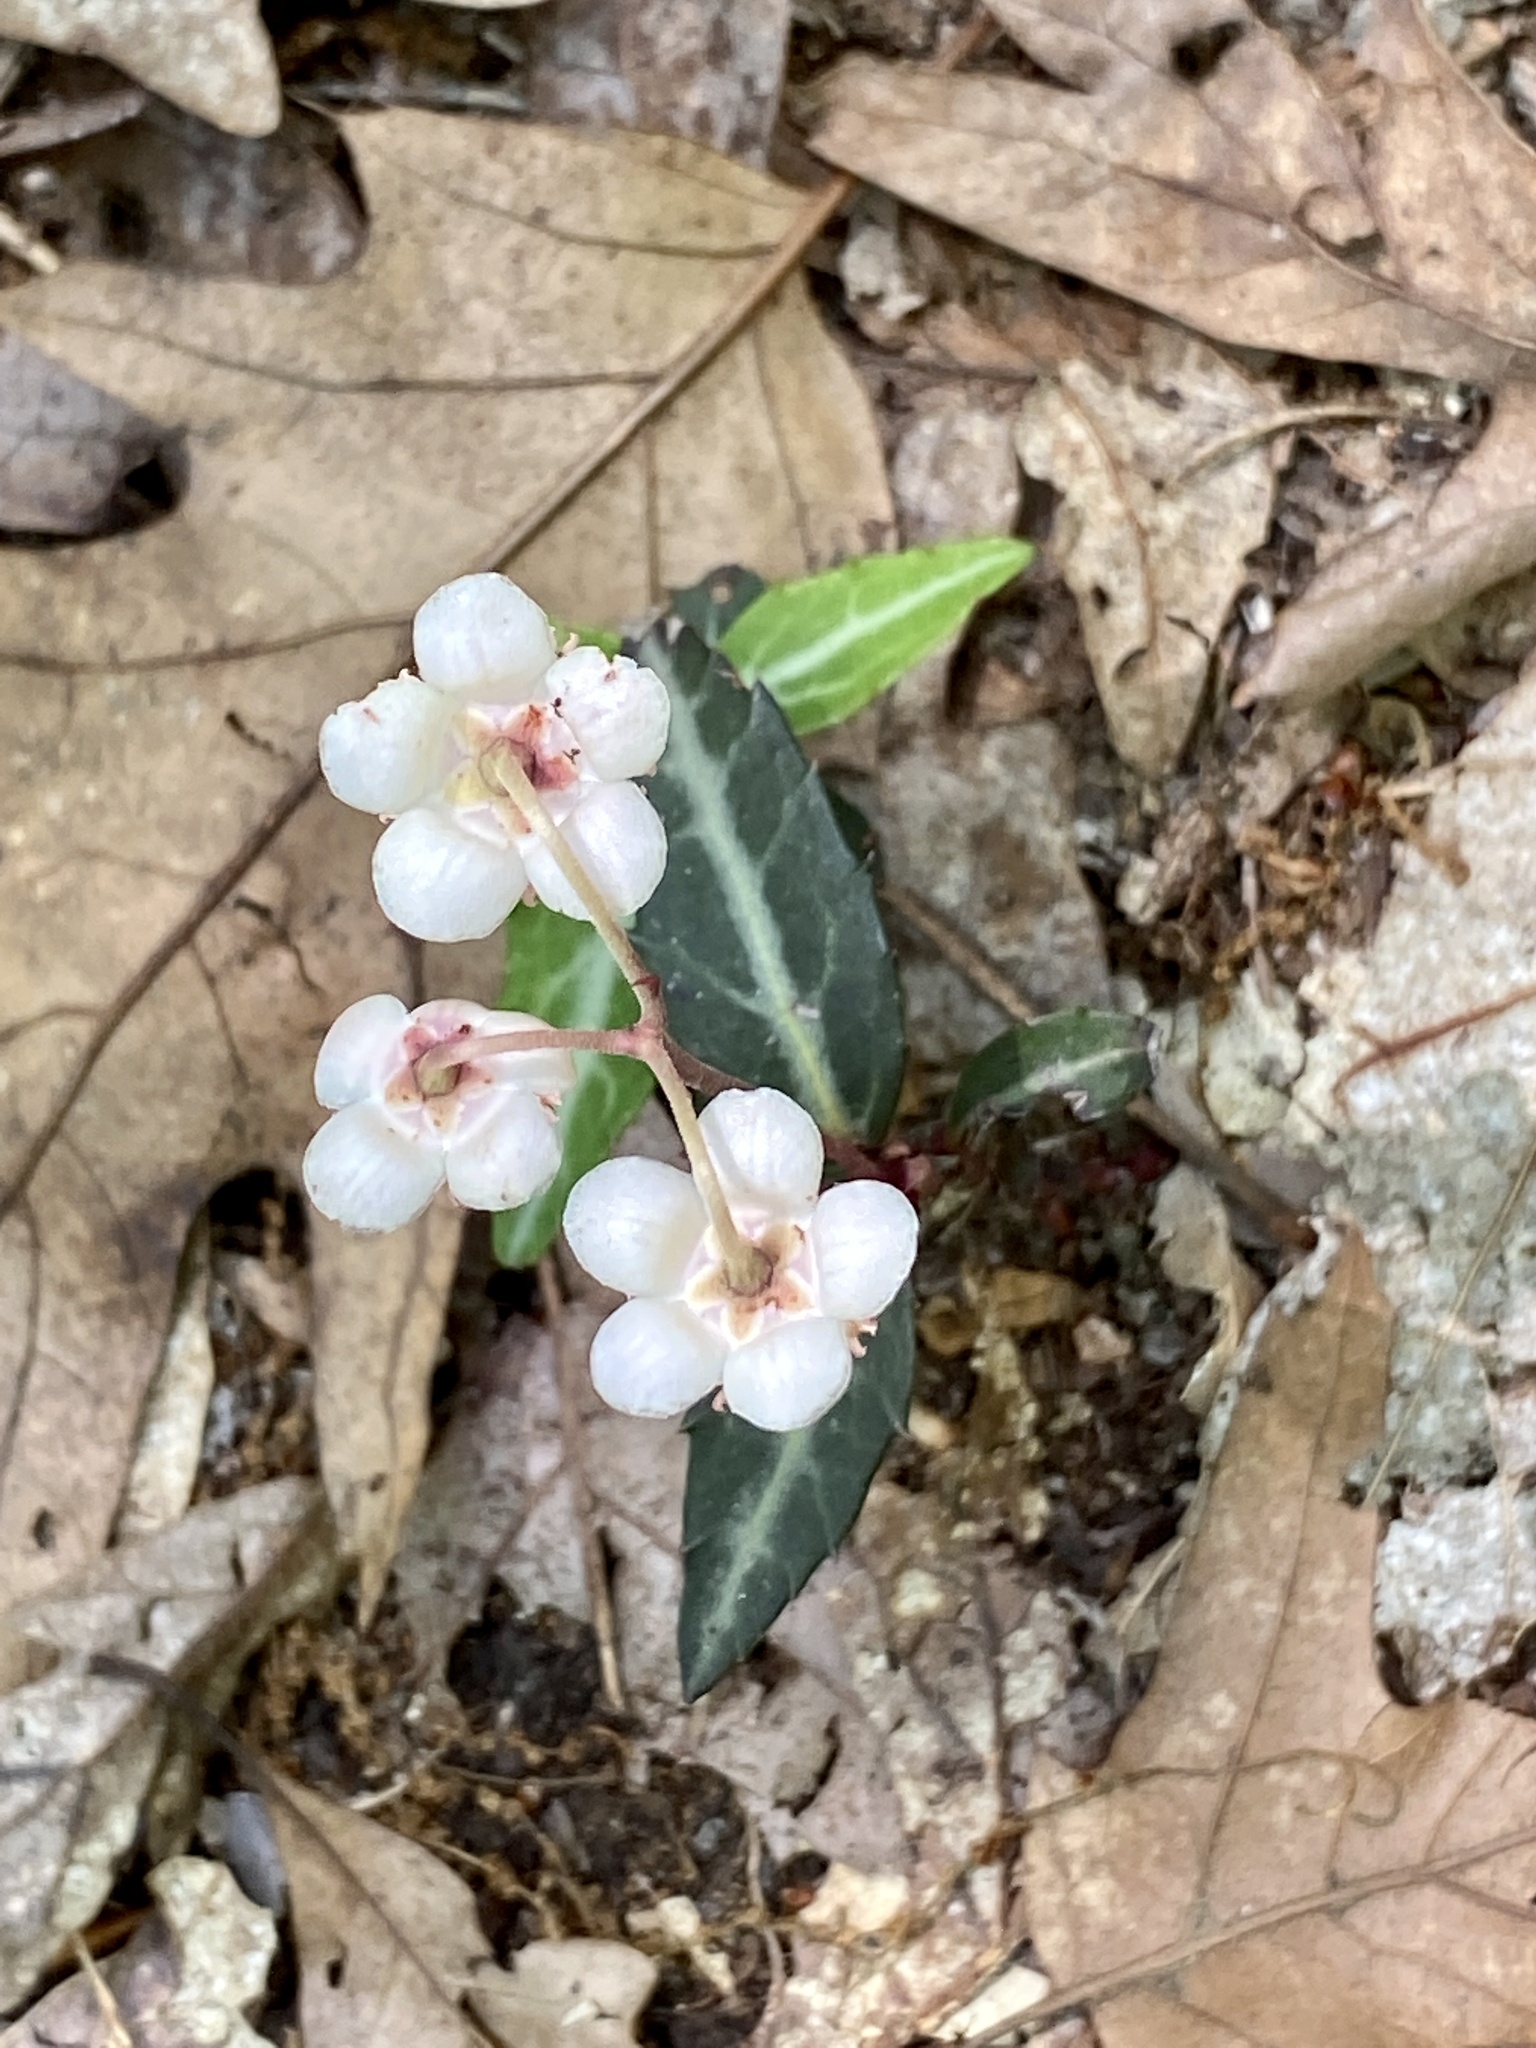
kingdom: Plantae
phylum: Tracheophyta
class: Magnoliopsida
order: Ericales
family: Ericaceae
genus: Chimaphila
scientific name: Chimaphila maculata
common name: Spotted pipsissewa
